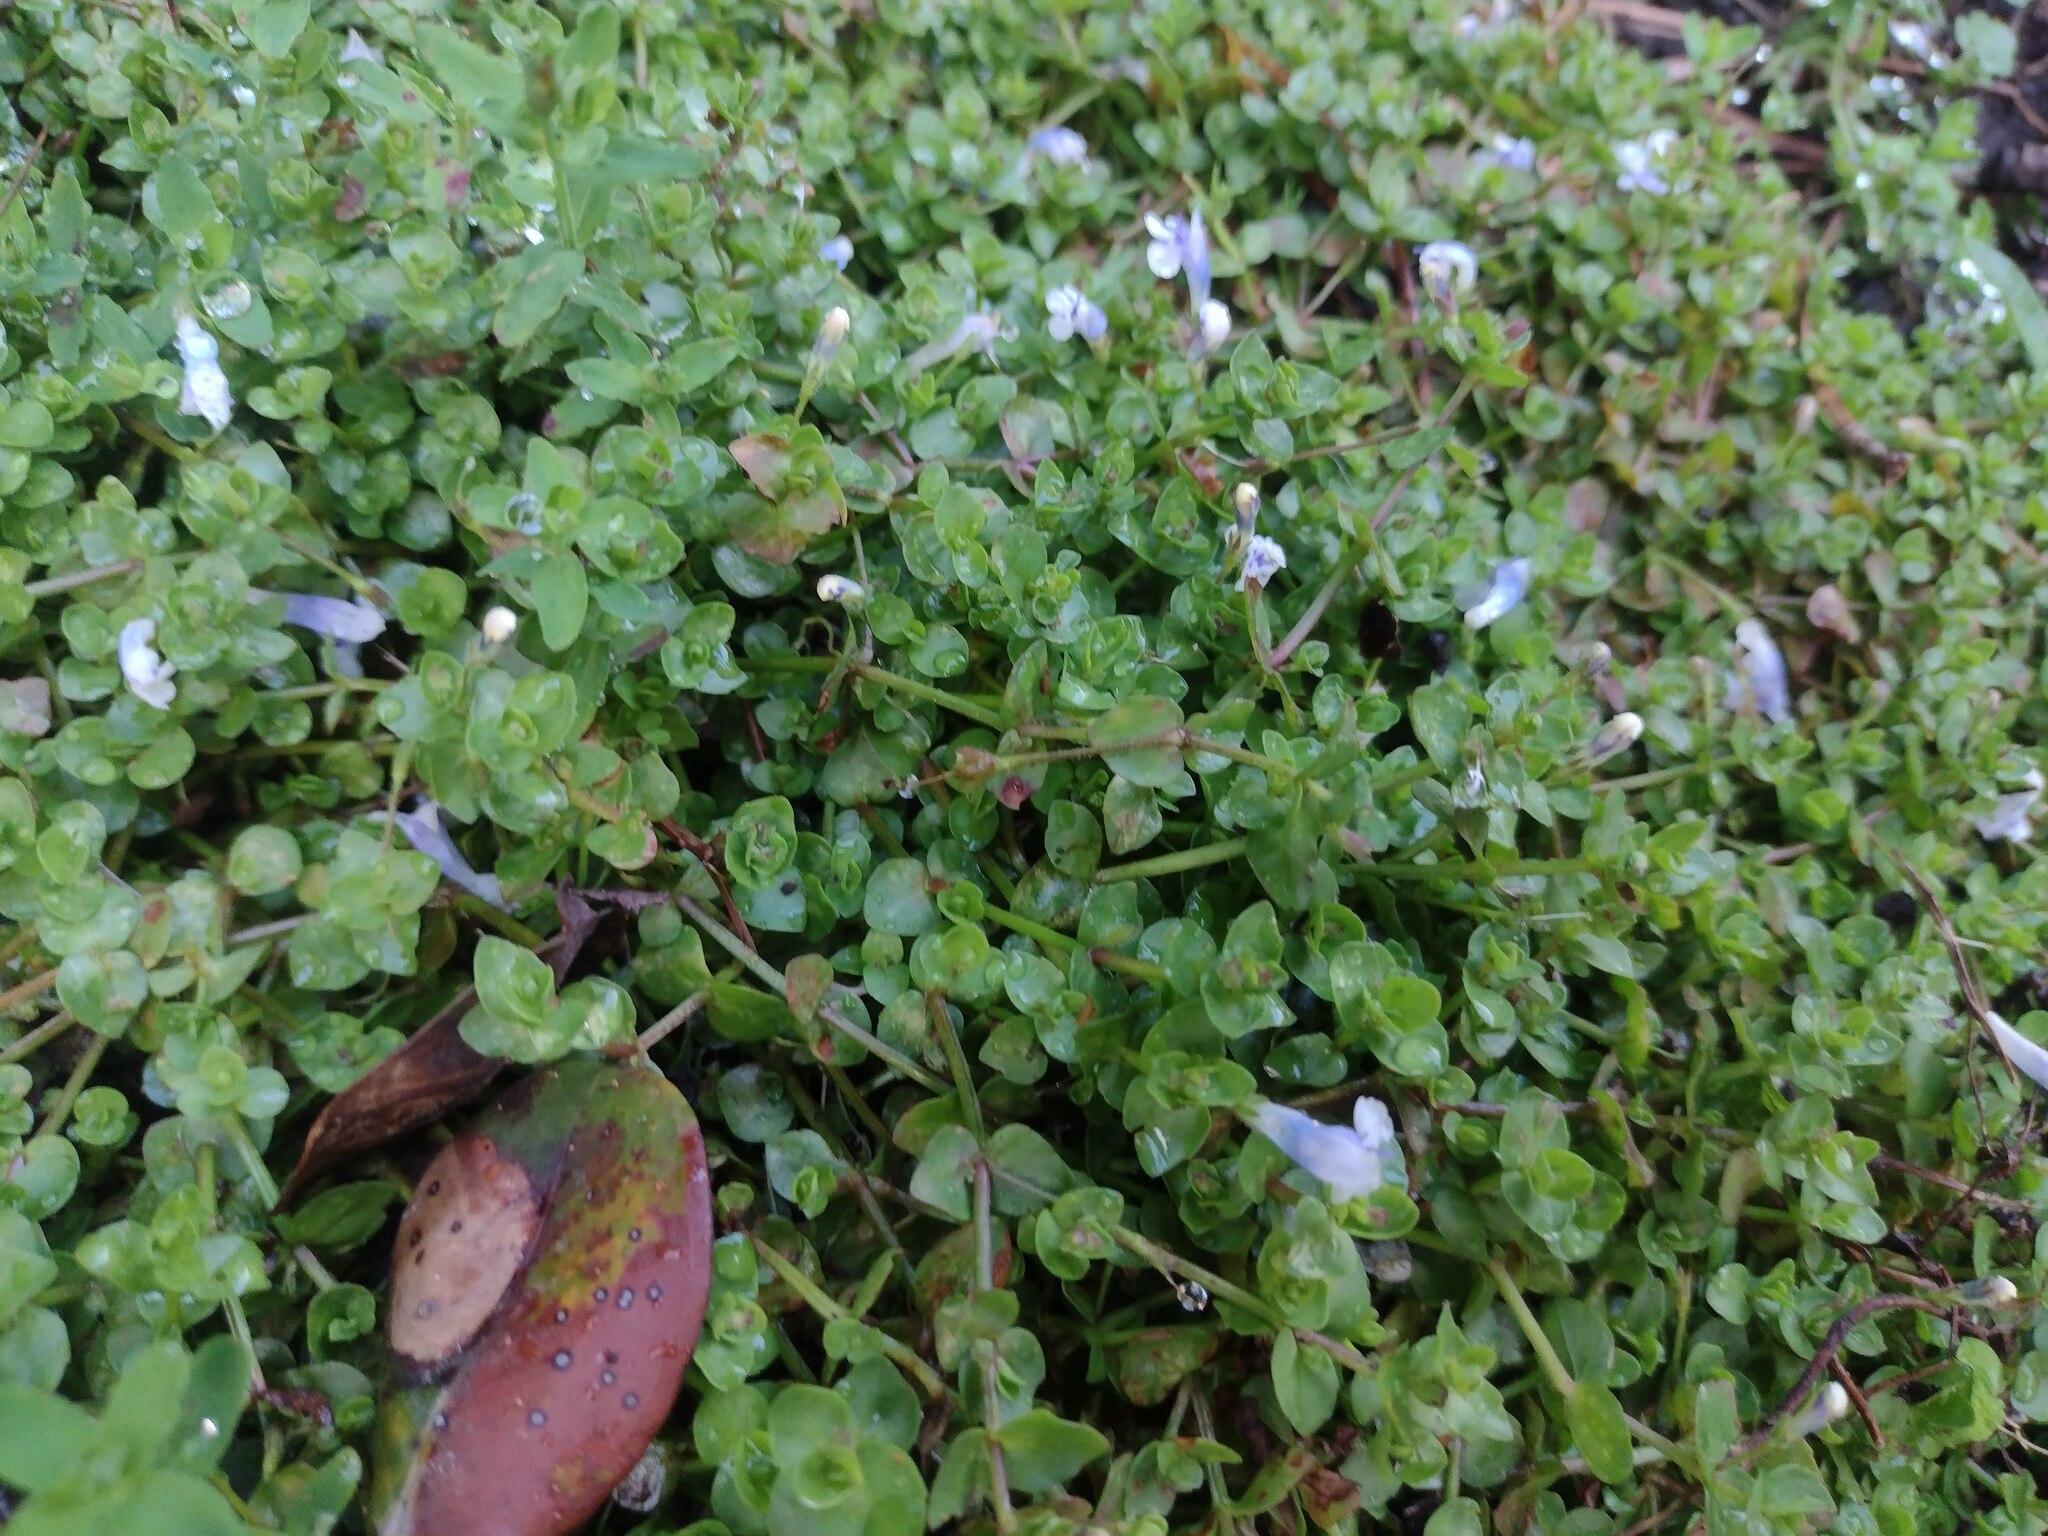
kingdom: Plantae
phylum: Tracheophyta
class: Magnoliopsida
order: Lamiales
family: Linderniaceae
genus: Lindernia
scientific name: Lindernia rotundifolia
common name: Baby’s tears
